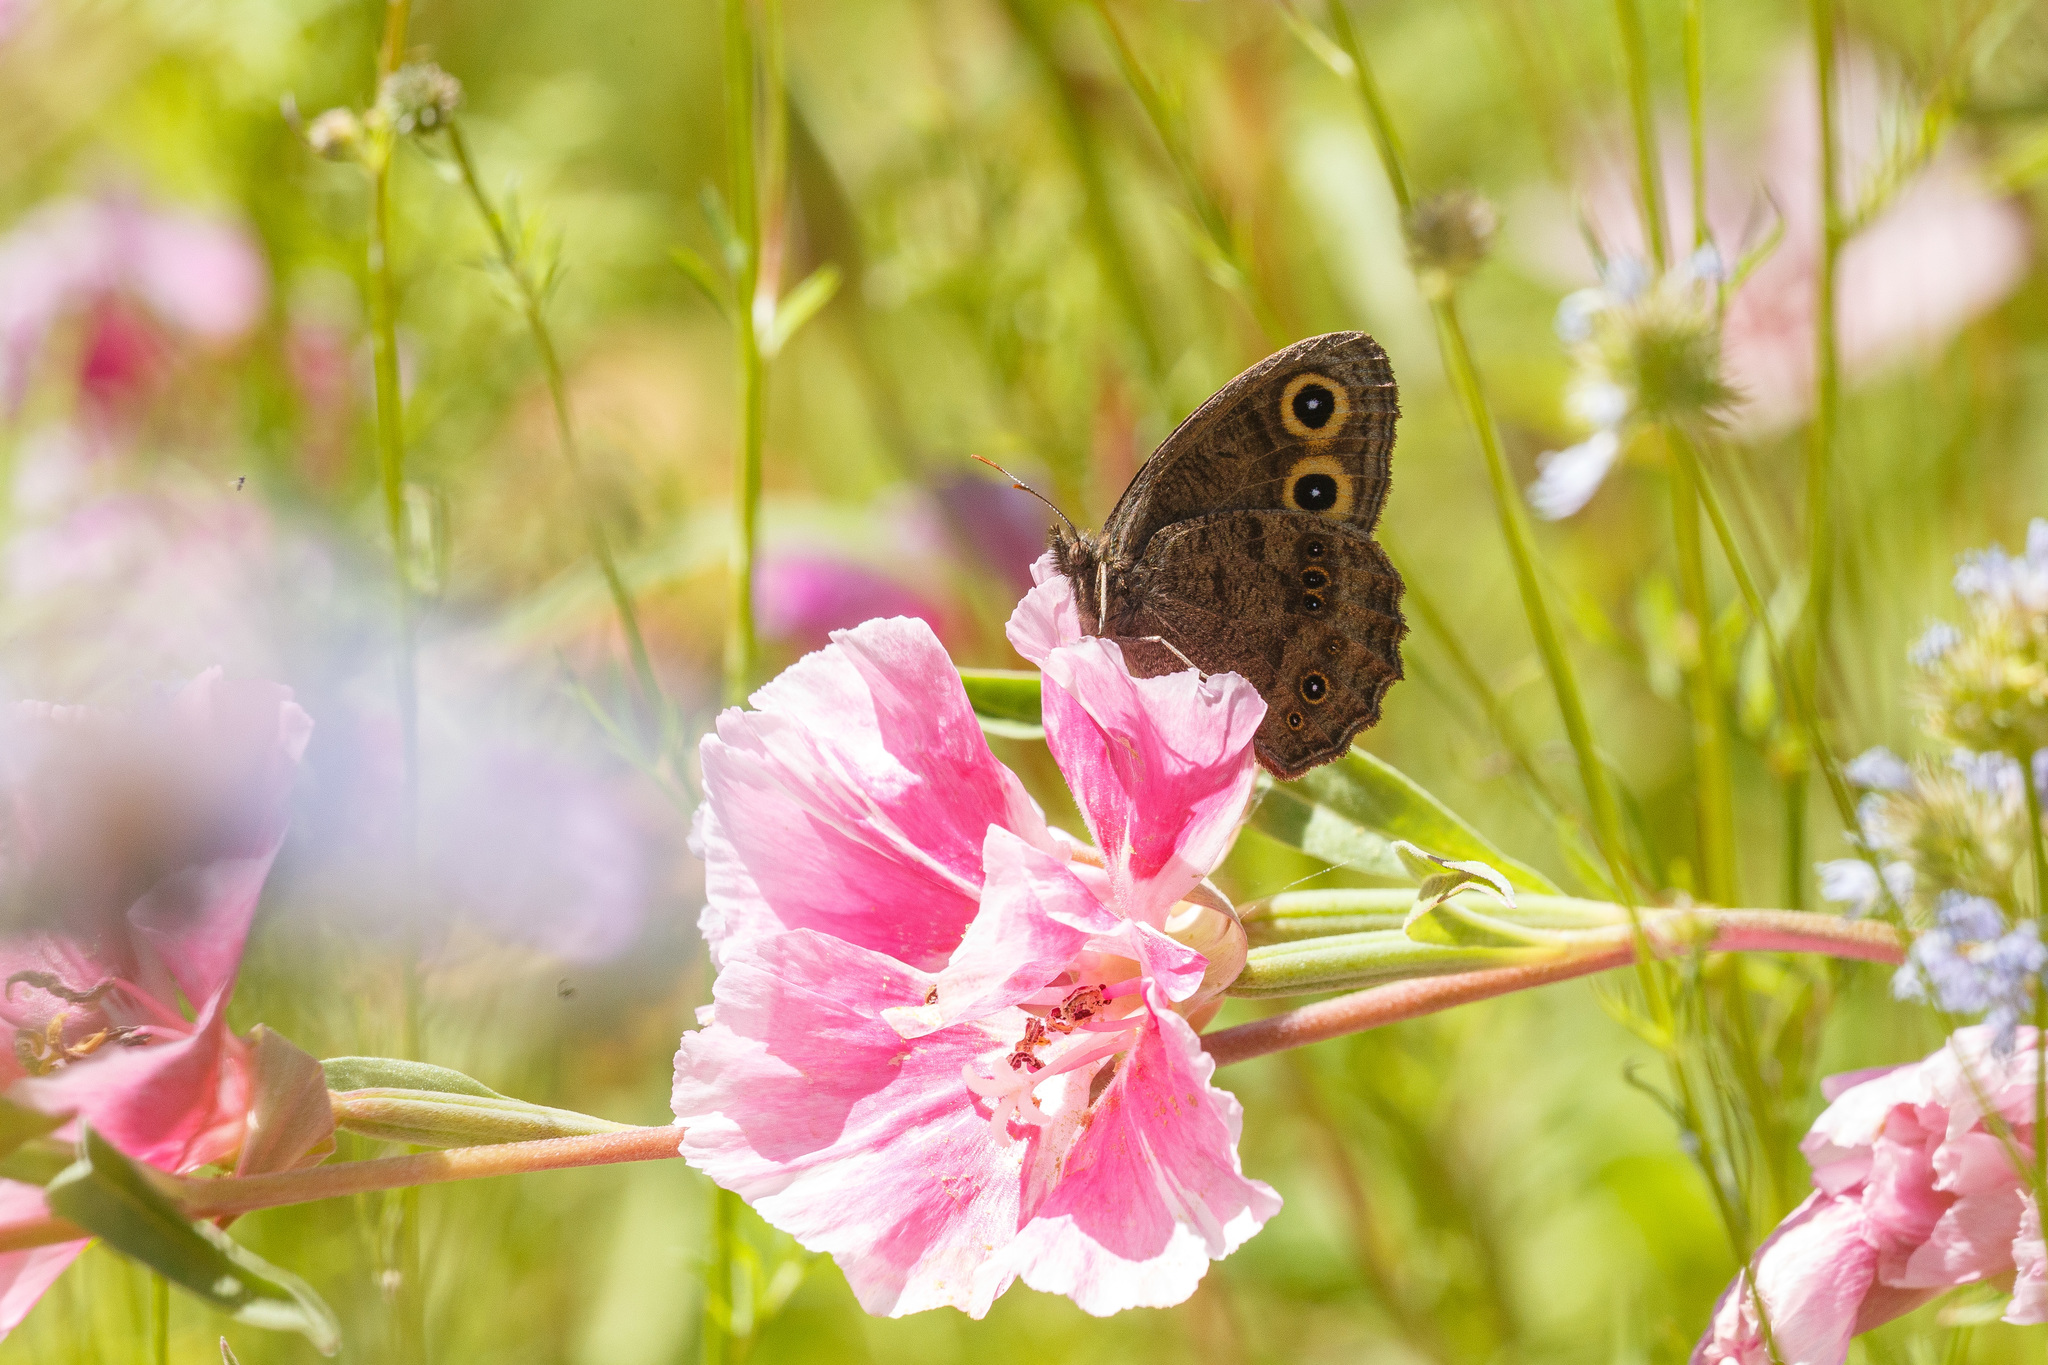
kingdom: Animalia
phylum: Arthropoda
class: Insecta
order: Lepidoptera
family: Nymphalidae
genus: Cercyonis
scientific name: Cercyonis pegala
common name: Common wood-nymph
